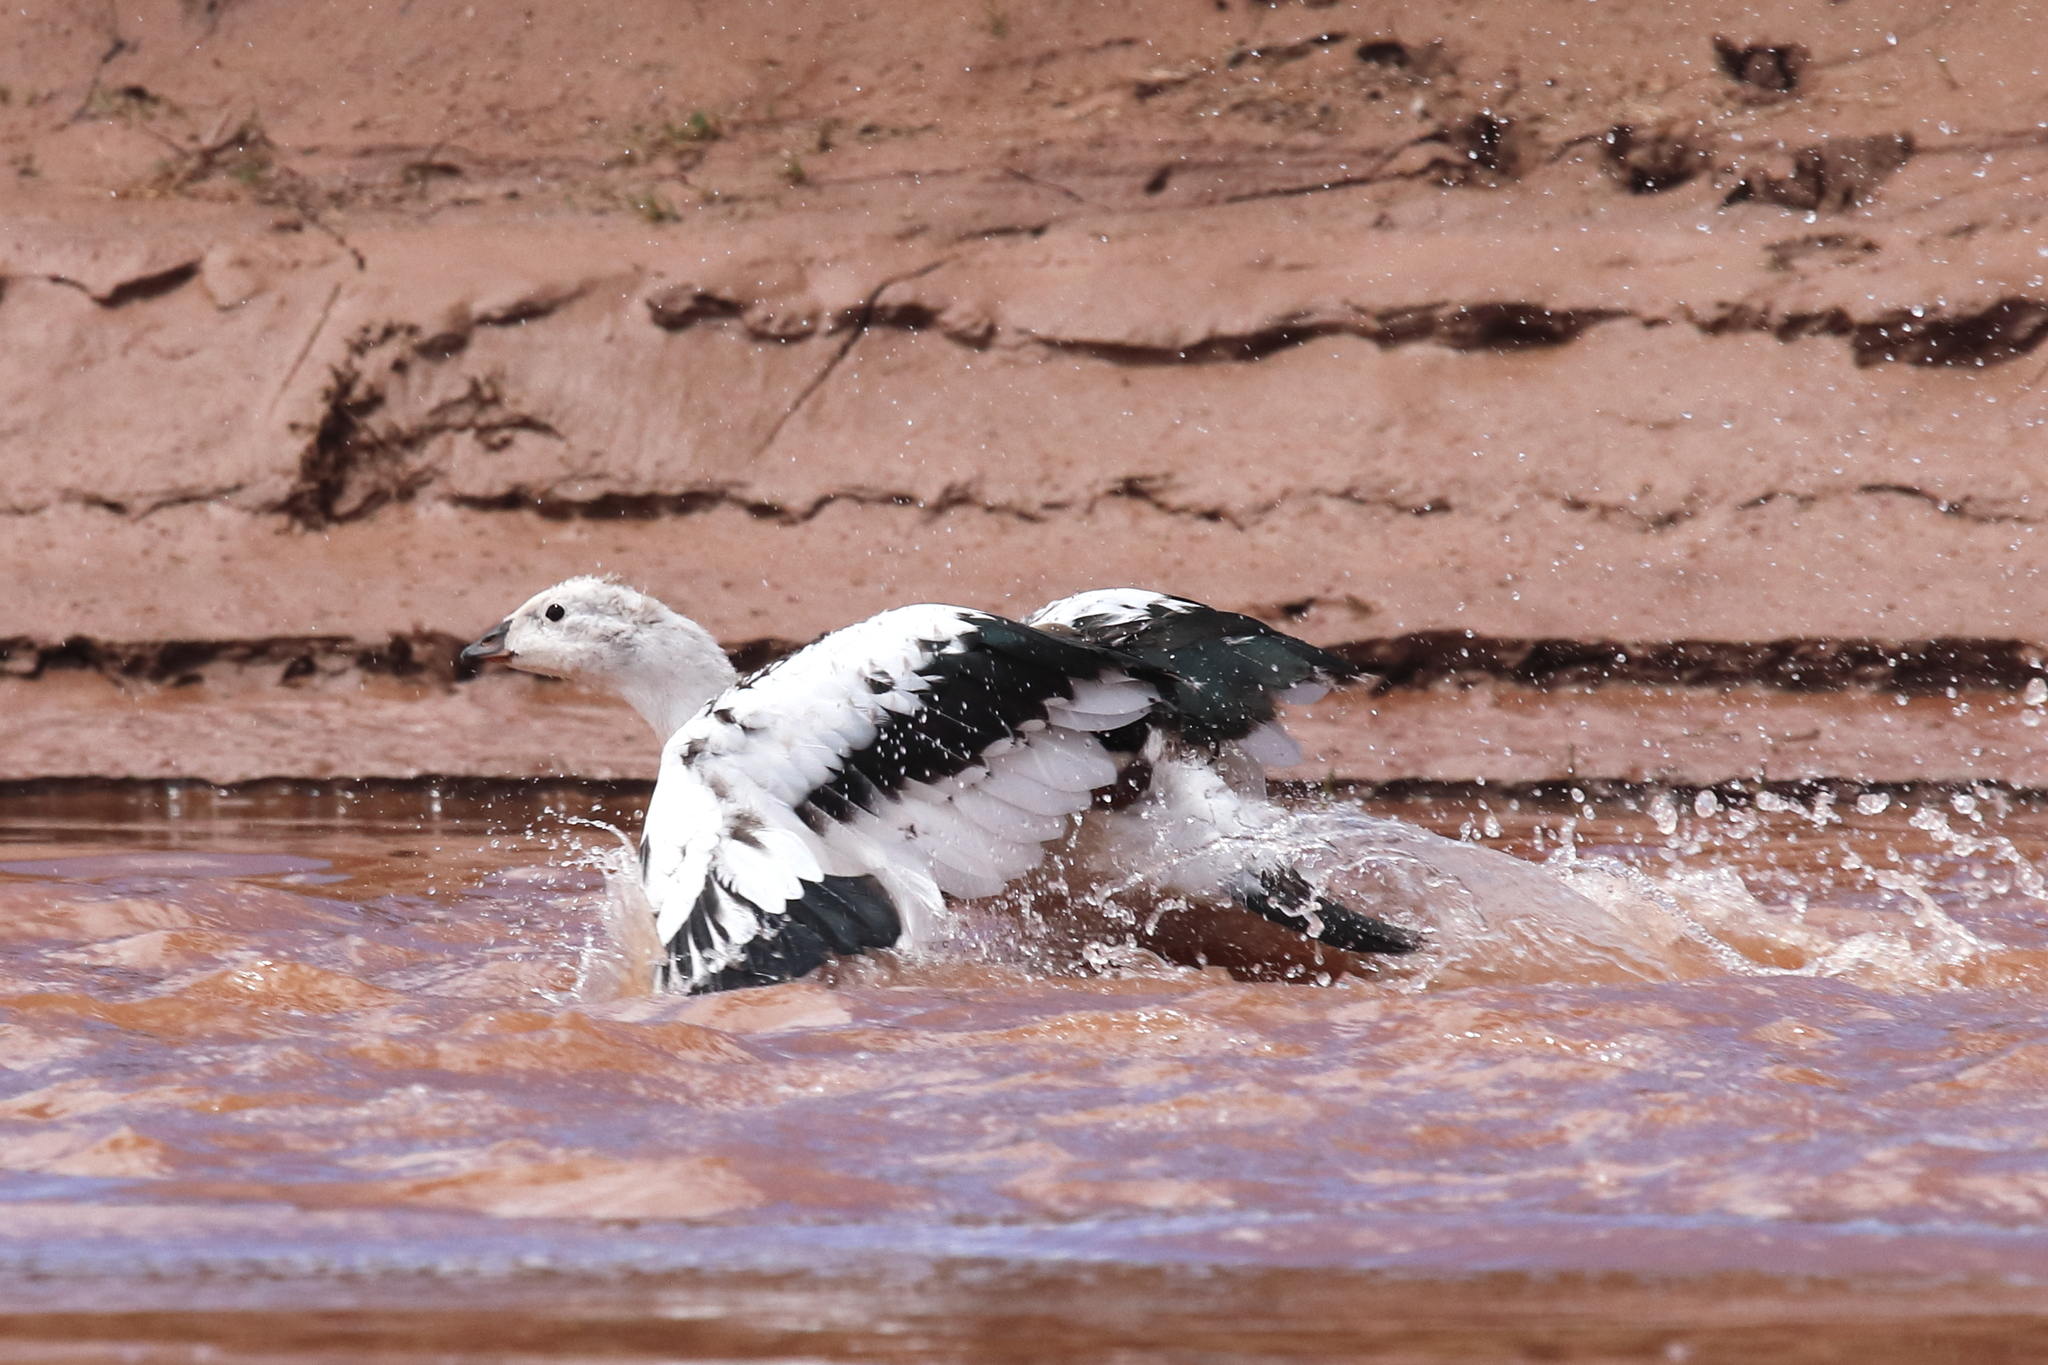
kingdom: Animalia
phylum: Chordata
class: Aves
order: Anseriformes
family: Anatidae
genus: Chloephaga
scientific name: Chloephaga melanoptera
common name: Andean goose
